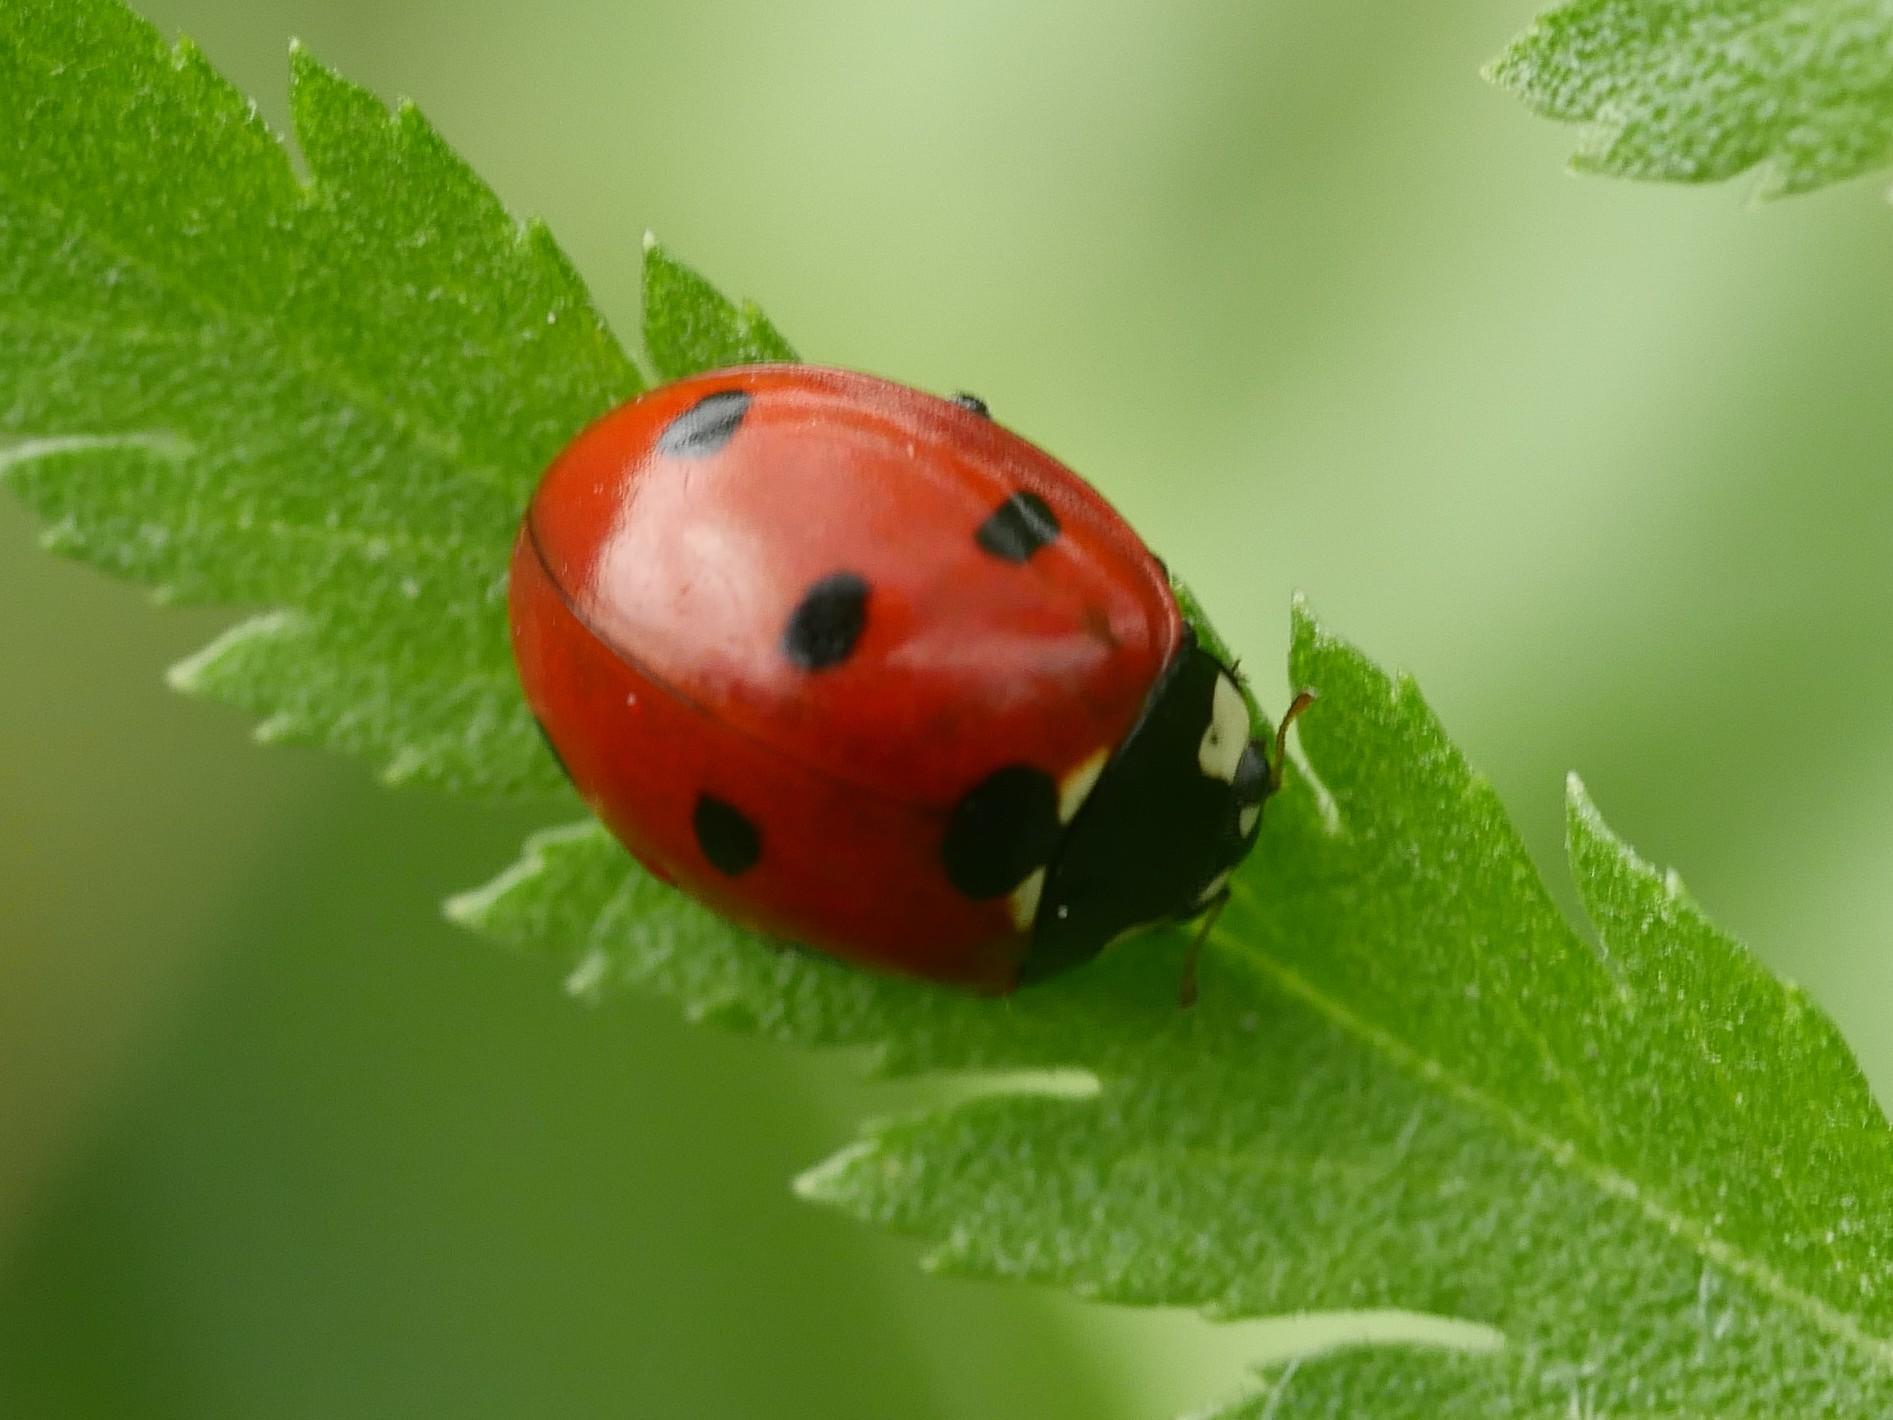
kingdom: Animalia
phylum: Arthropoda
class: Insecta
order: Coleoptera
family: Coccinellidae
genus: Coccinella
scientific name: Coccinella septempunctata
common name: Sevenspotted lady beetle
